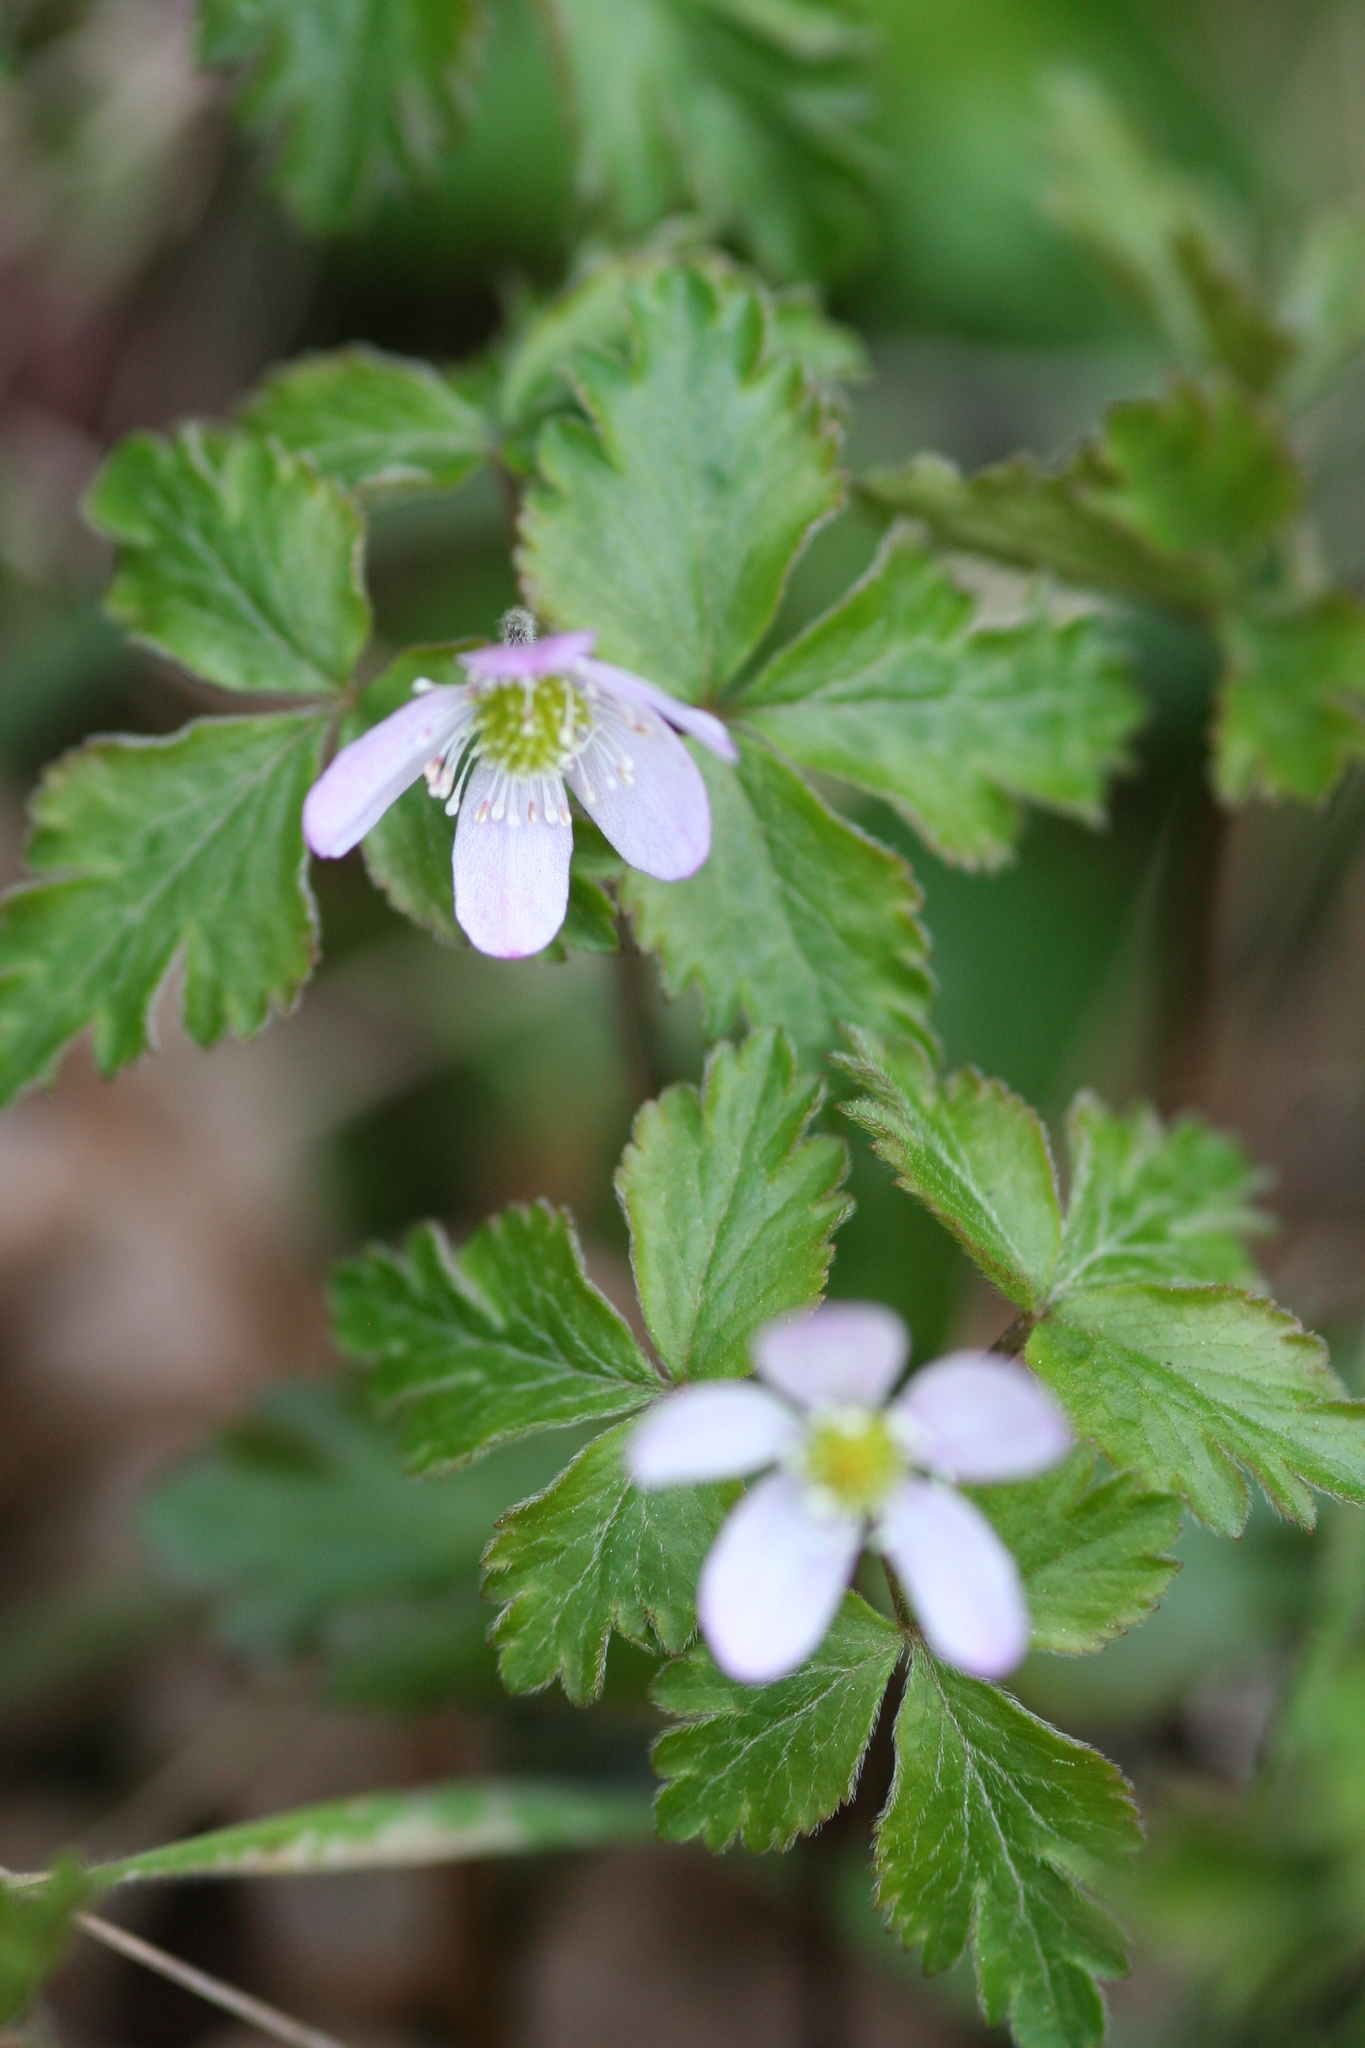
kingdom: Plantae
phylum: Tracheophyta
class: Magnoliopsida
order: Ranunculales
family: Ranunculaceae
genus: Anemone
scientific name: Anemone
